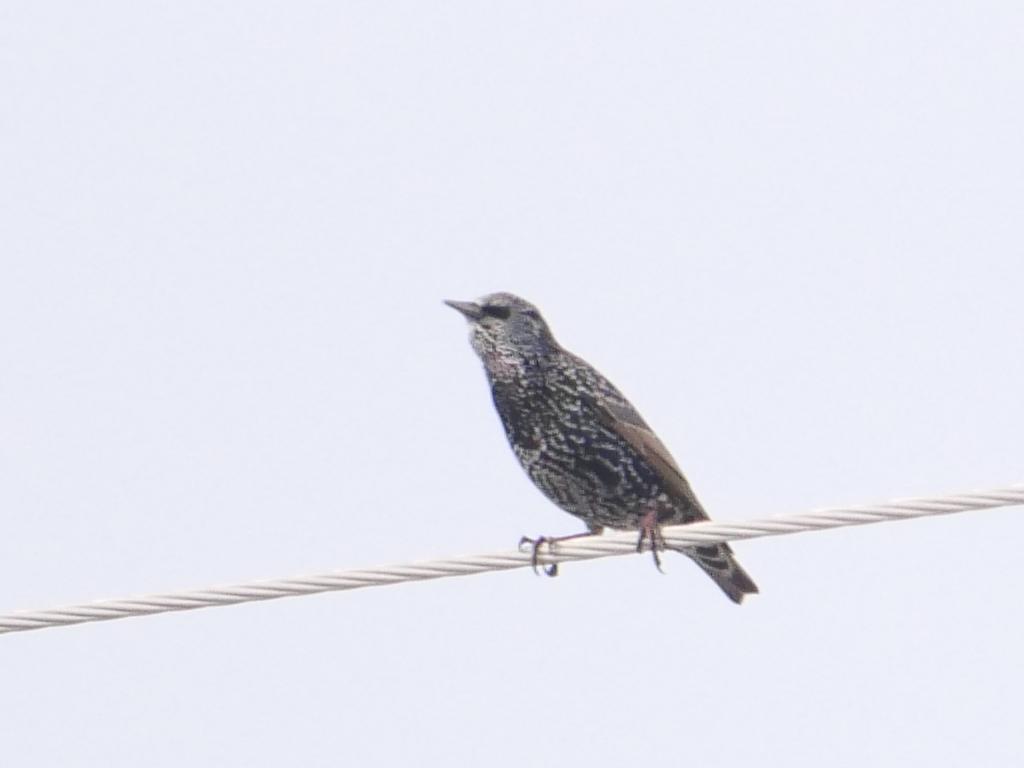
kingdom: Animalia
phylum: Chordata
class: Aves
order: Passeriformes
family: Sturnidae
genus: Sturnus
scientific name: Sturnus vulgaris
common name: Common starling
